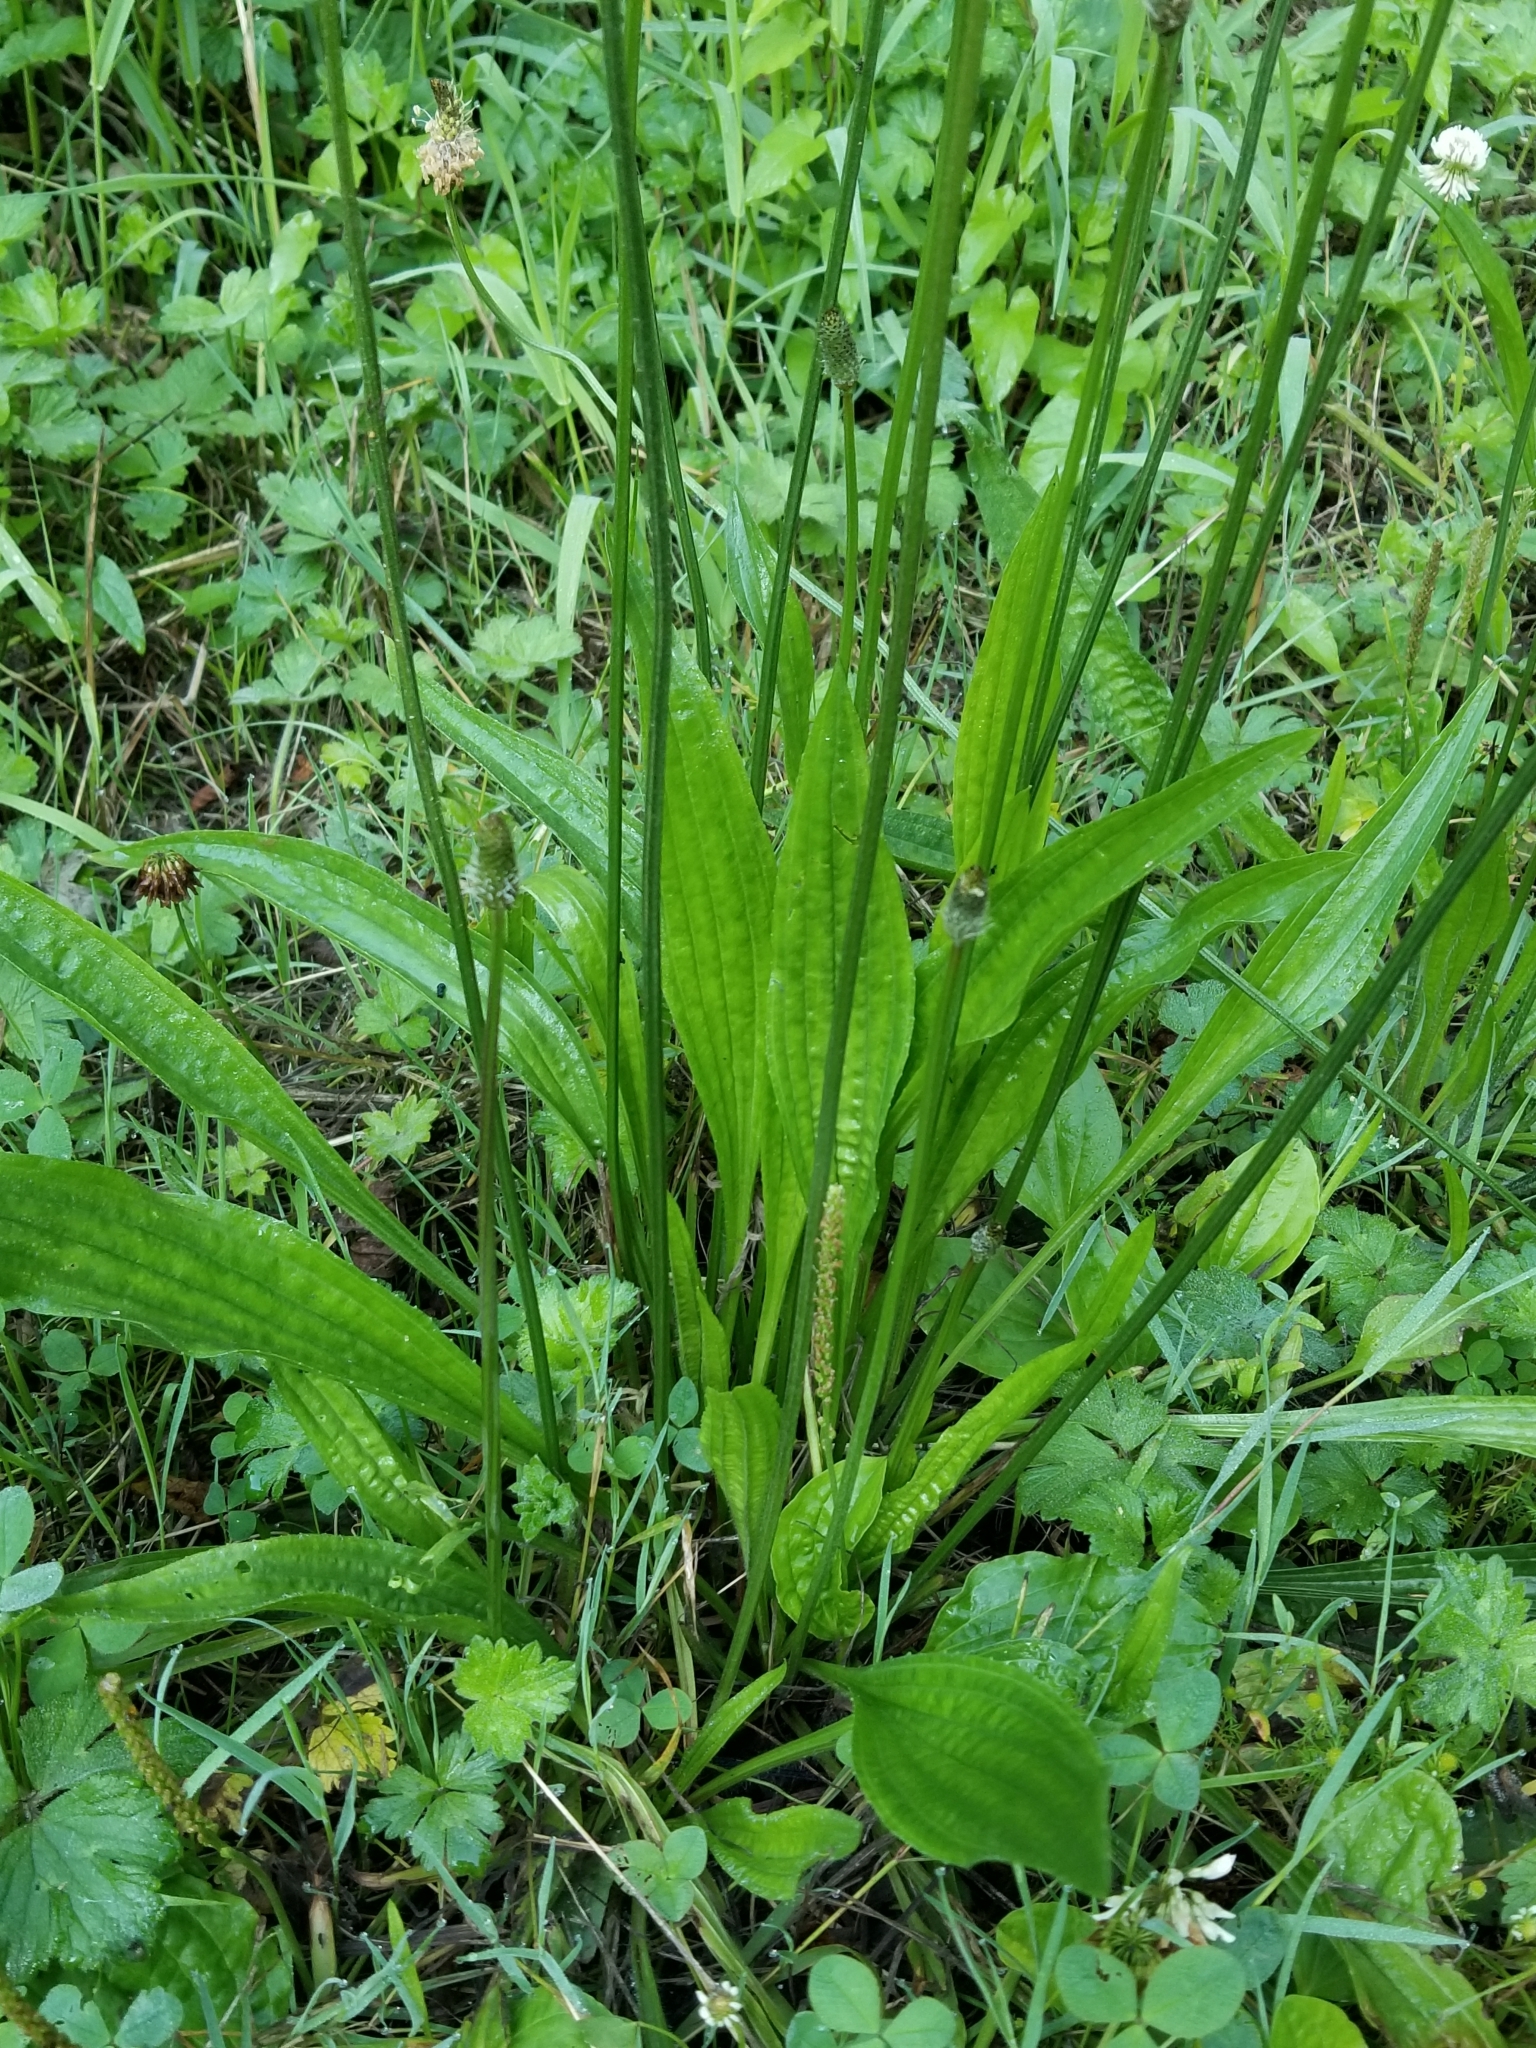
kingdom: Plantae
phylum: Tracheophyta
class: Magnoliopsida
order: Lamiales
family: Plantaginaceae
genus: Plantago
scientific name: Plantago lanceolata
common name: Ribwort plantain
